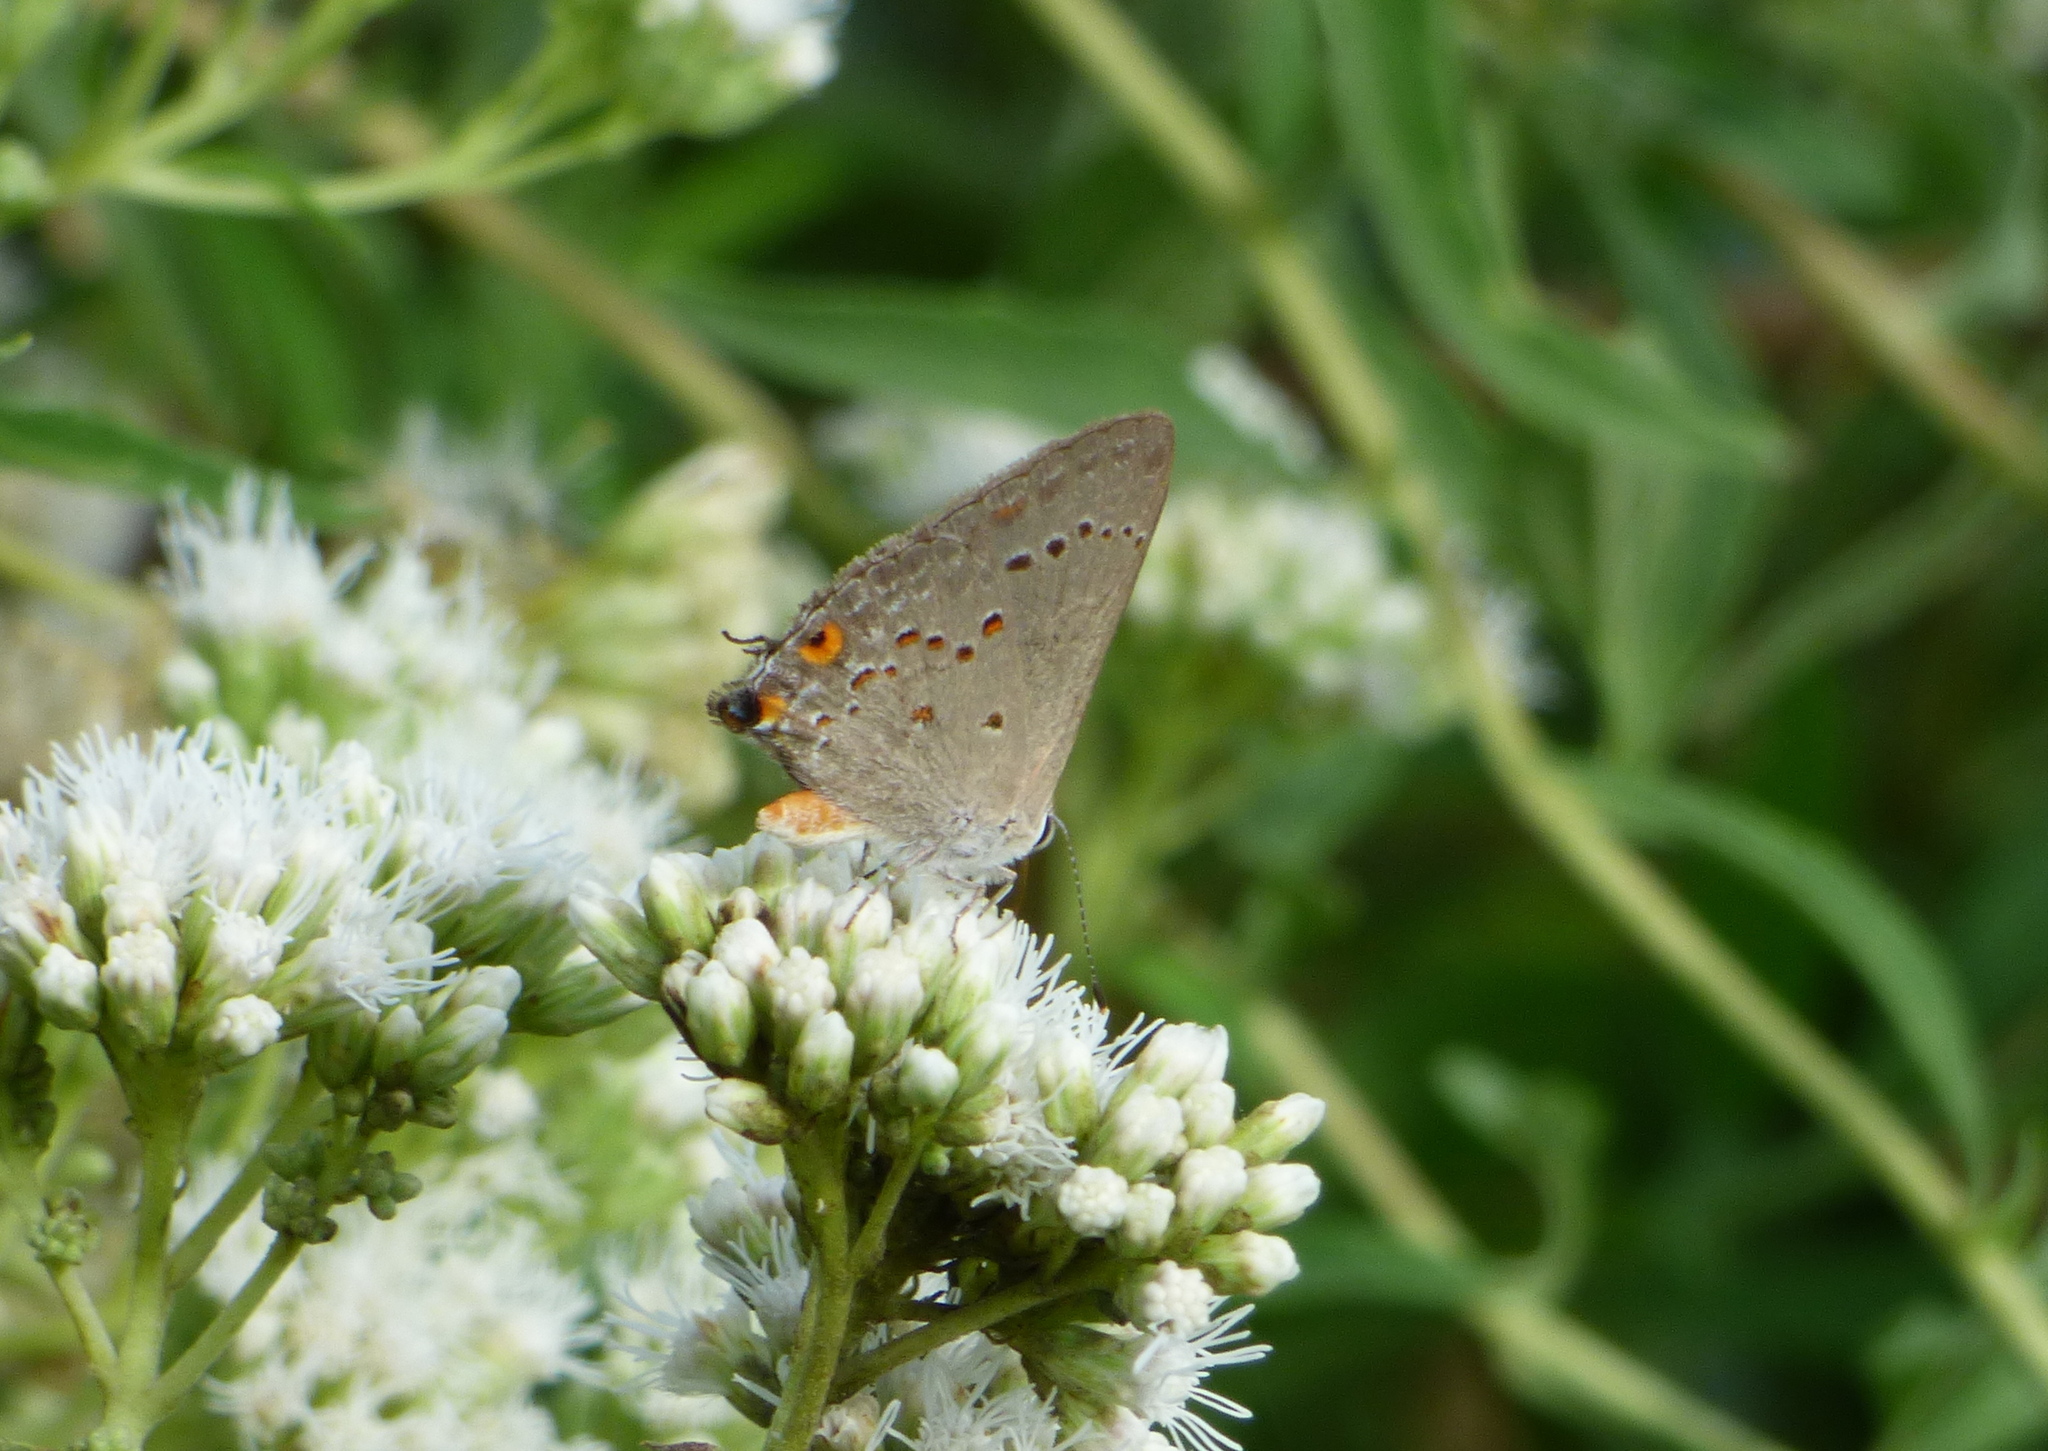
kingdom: Animalia
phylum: Arthropoda
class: Insecta
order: Lepidoptera
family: Lycaenidae
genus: Strymon
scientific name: Strymon eurytulus
